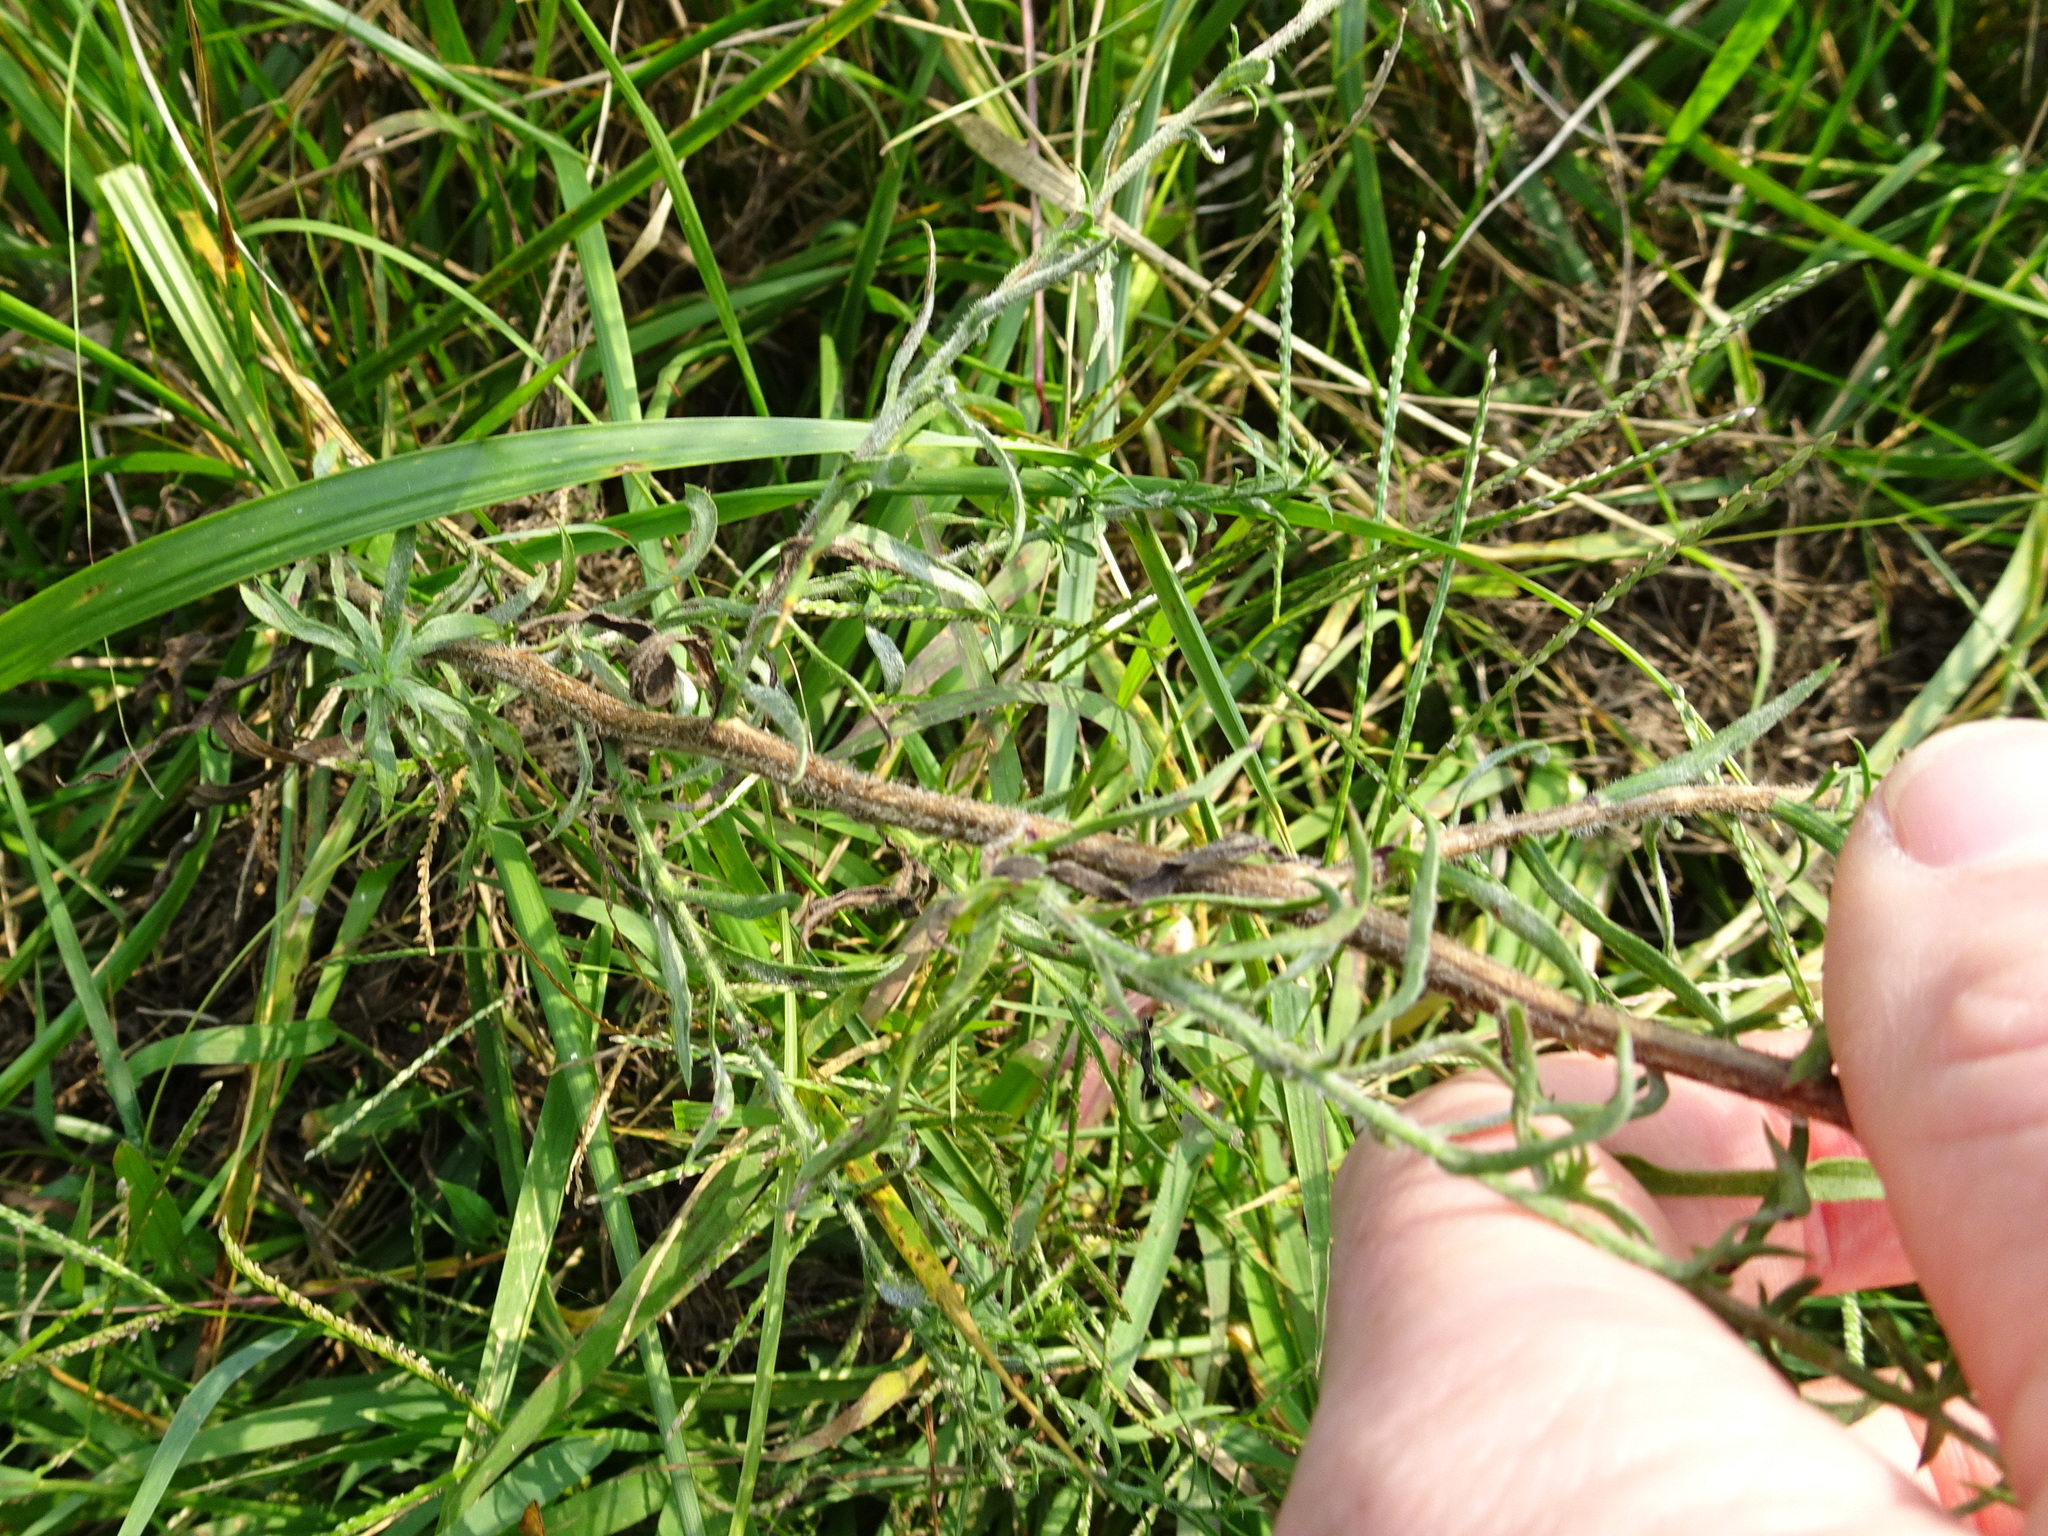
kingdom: Plantae
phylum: Tracheophyta
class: Magnoliopsida
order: Asterales
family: Asteraceae
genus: Symphyotrichum
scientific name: Symphyotrichum pilosum
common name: Awl aster
